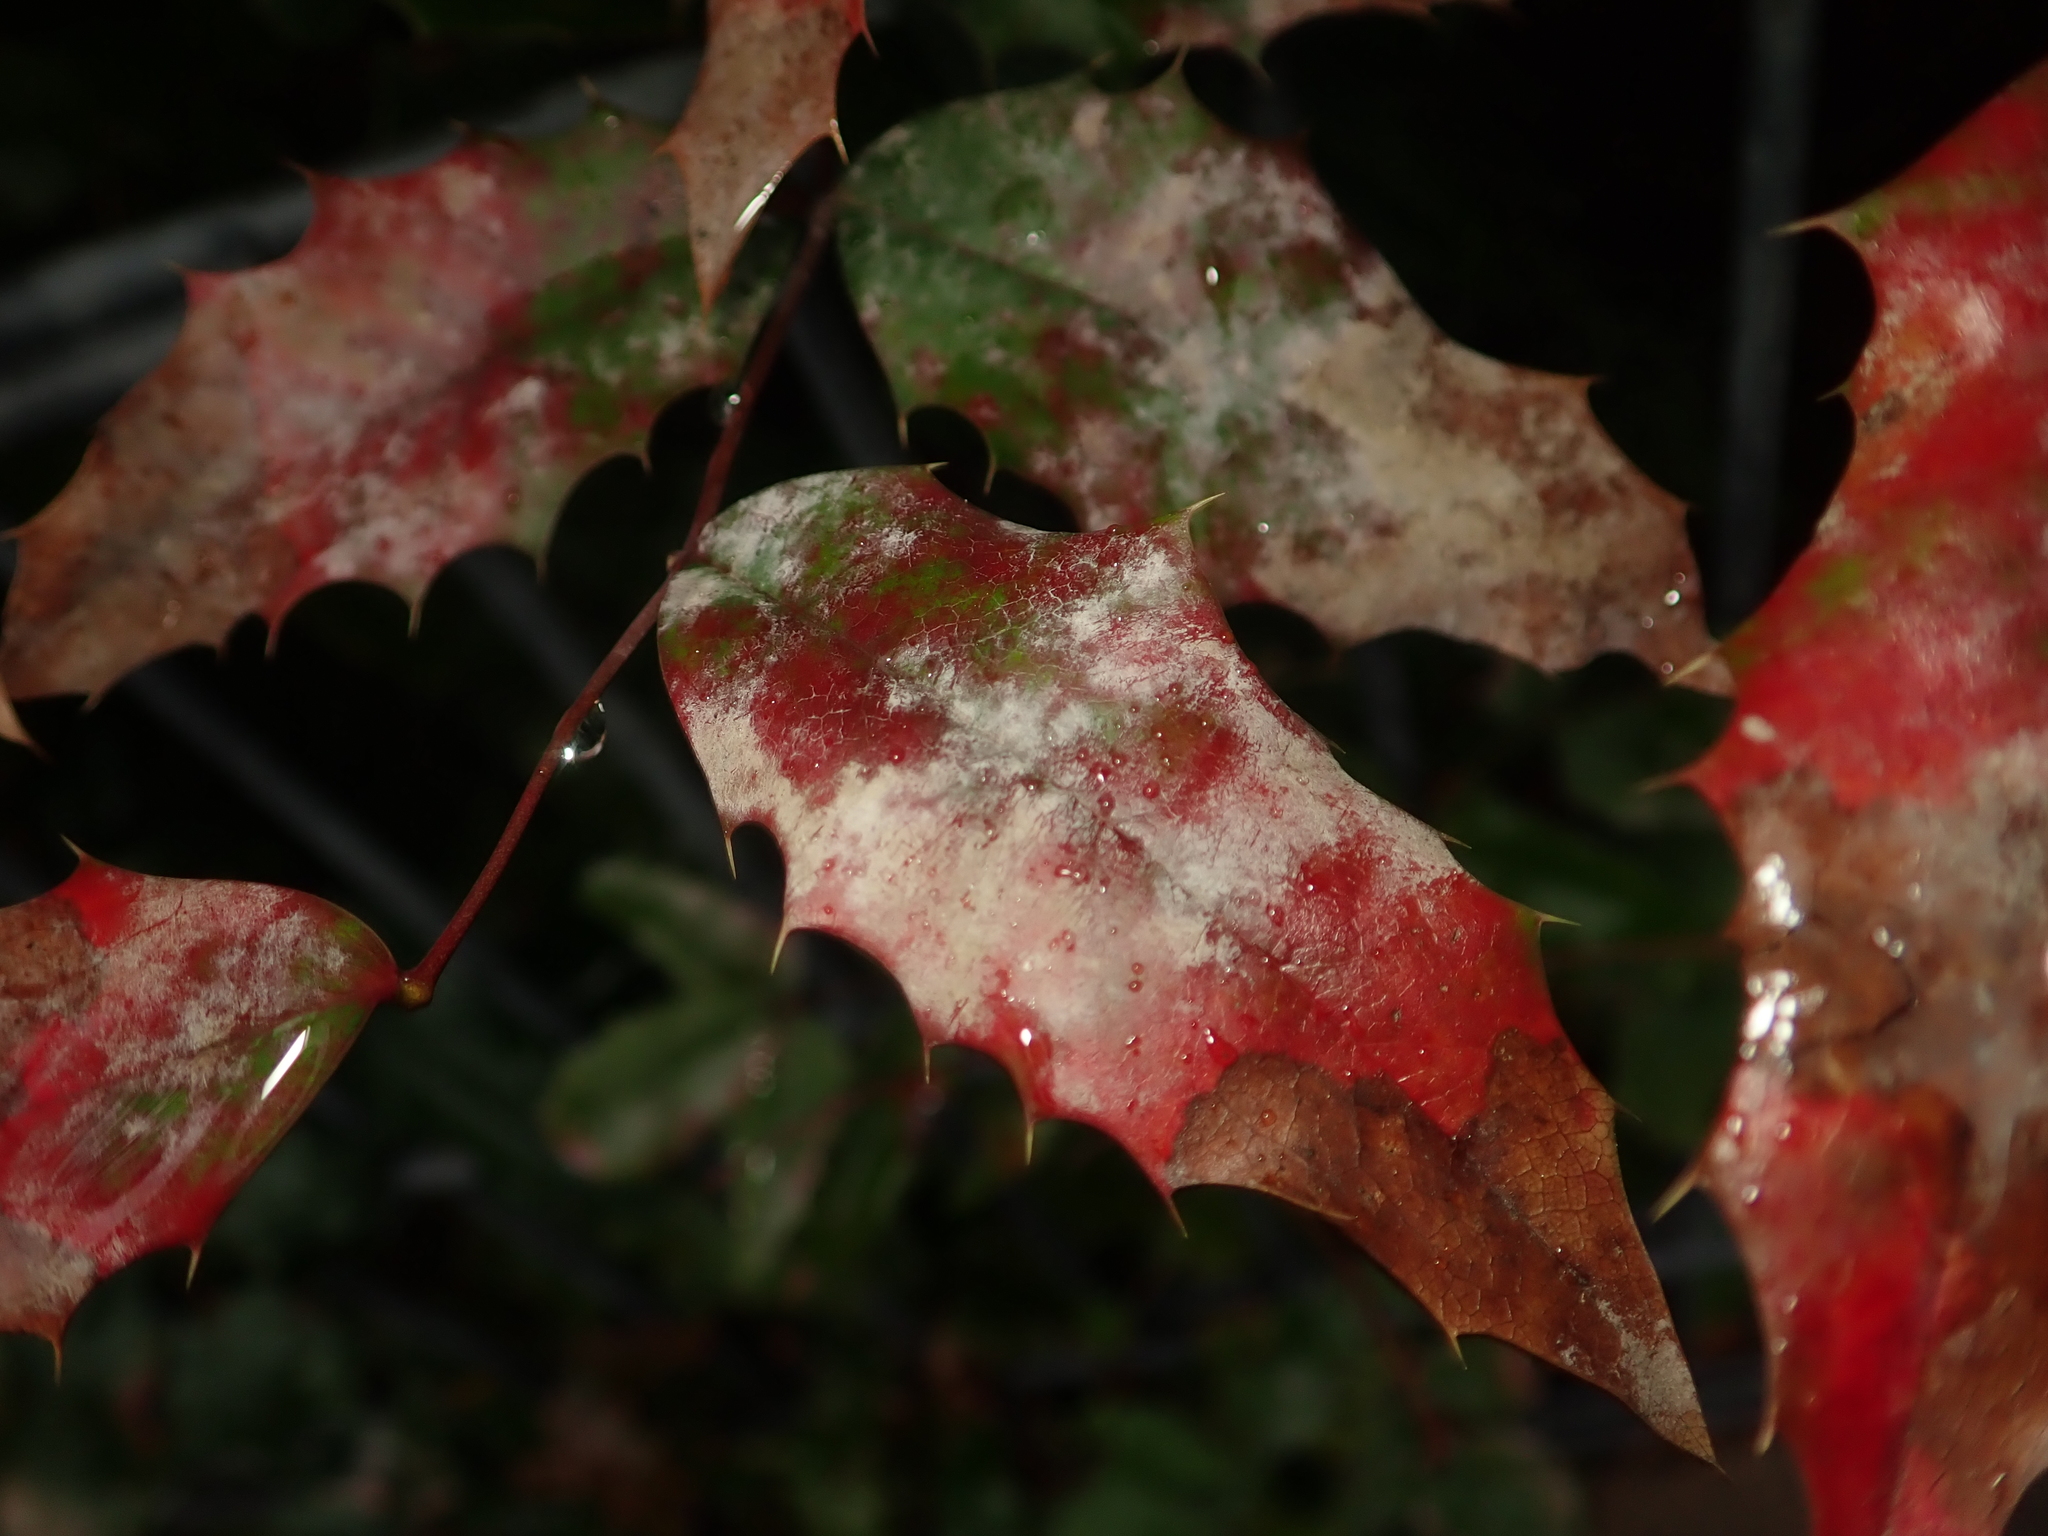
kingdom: Fungi
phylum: Ascomycota
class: Leotiomycetes
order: Helotiales
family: Erysiphaceae
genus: Erysiphe
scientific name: Erysiphe berberidis
